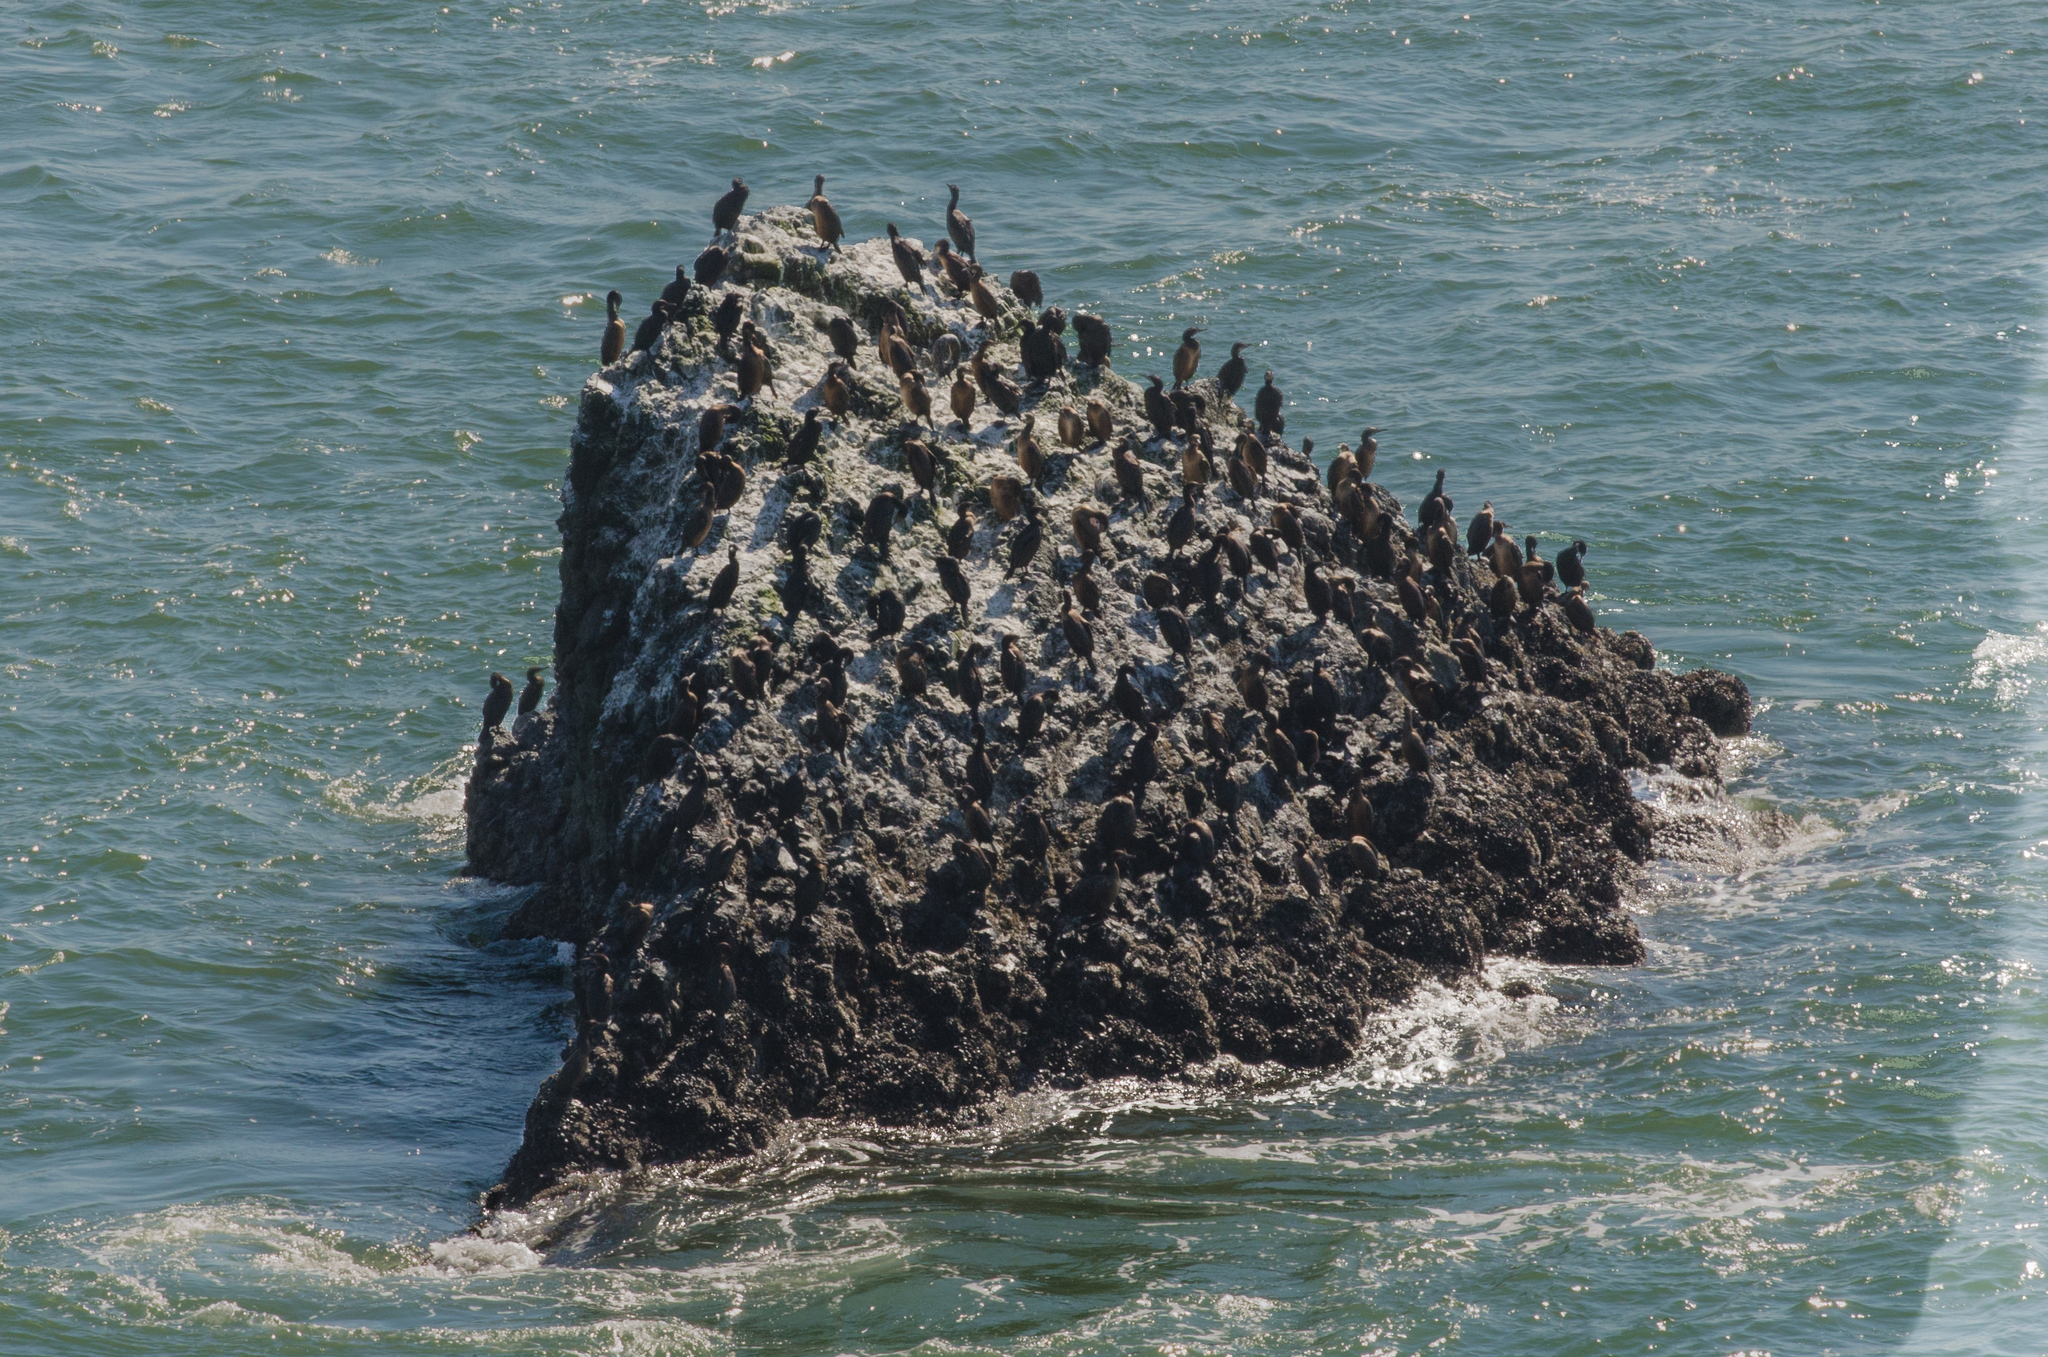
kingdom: Animalia
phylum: Chordata
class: Aves
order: Suliformes
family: Phalacrocoracidae
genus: Urile
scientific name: Urile penicillatus
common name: Brandt's cormorant
